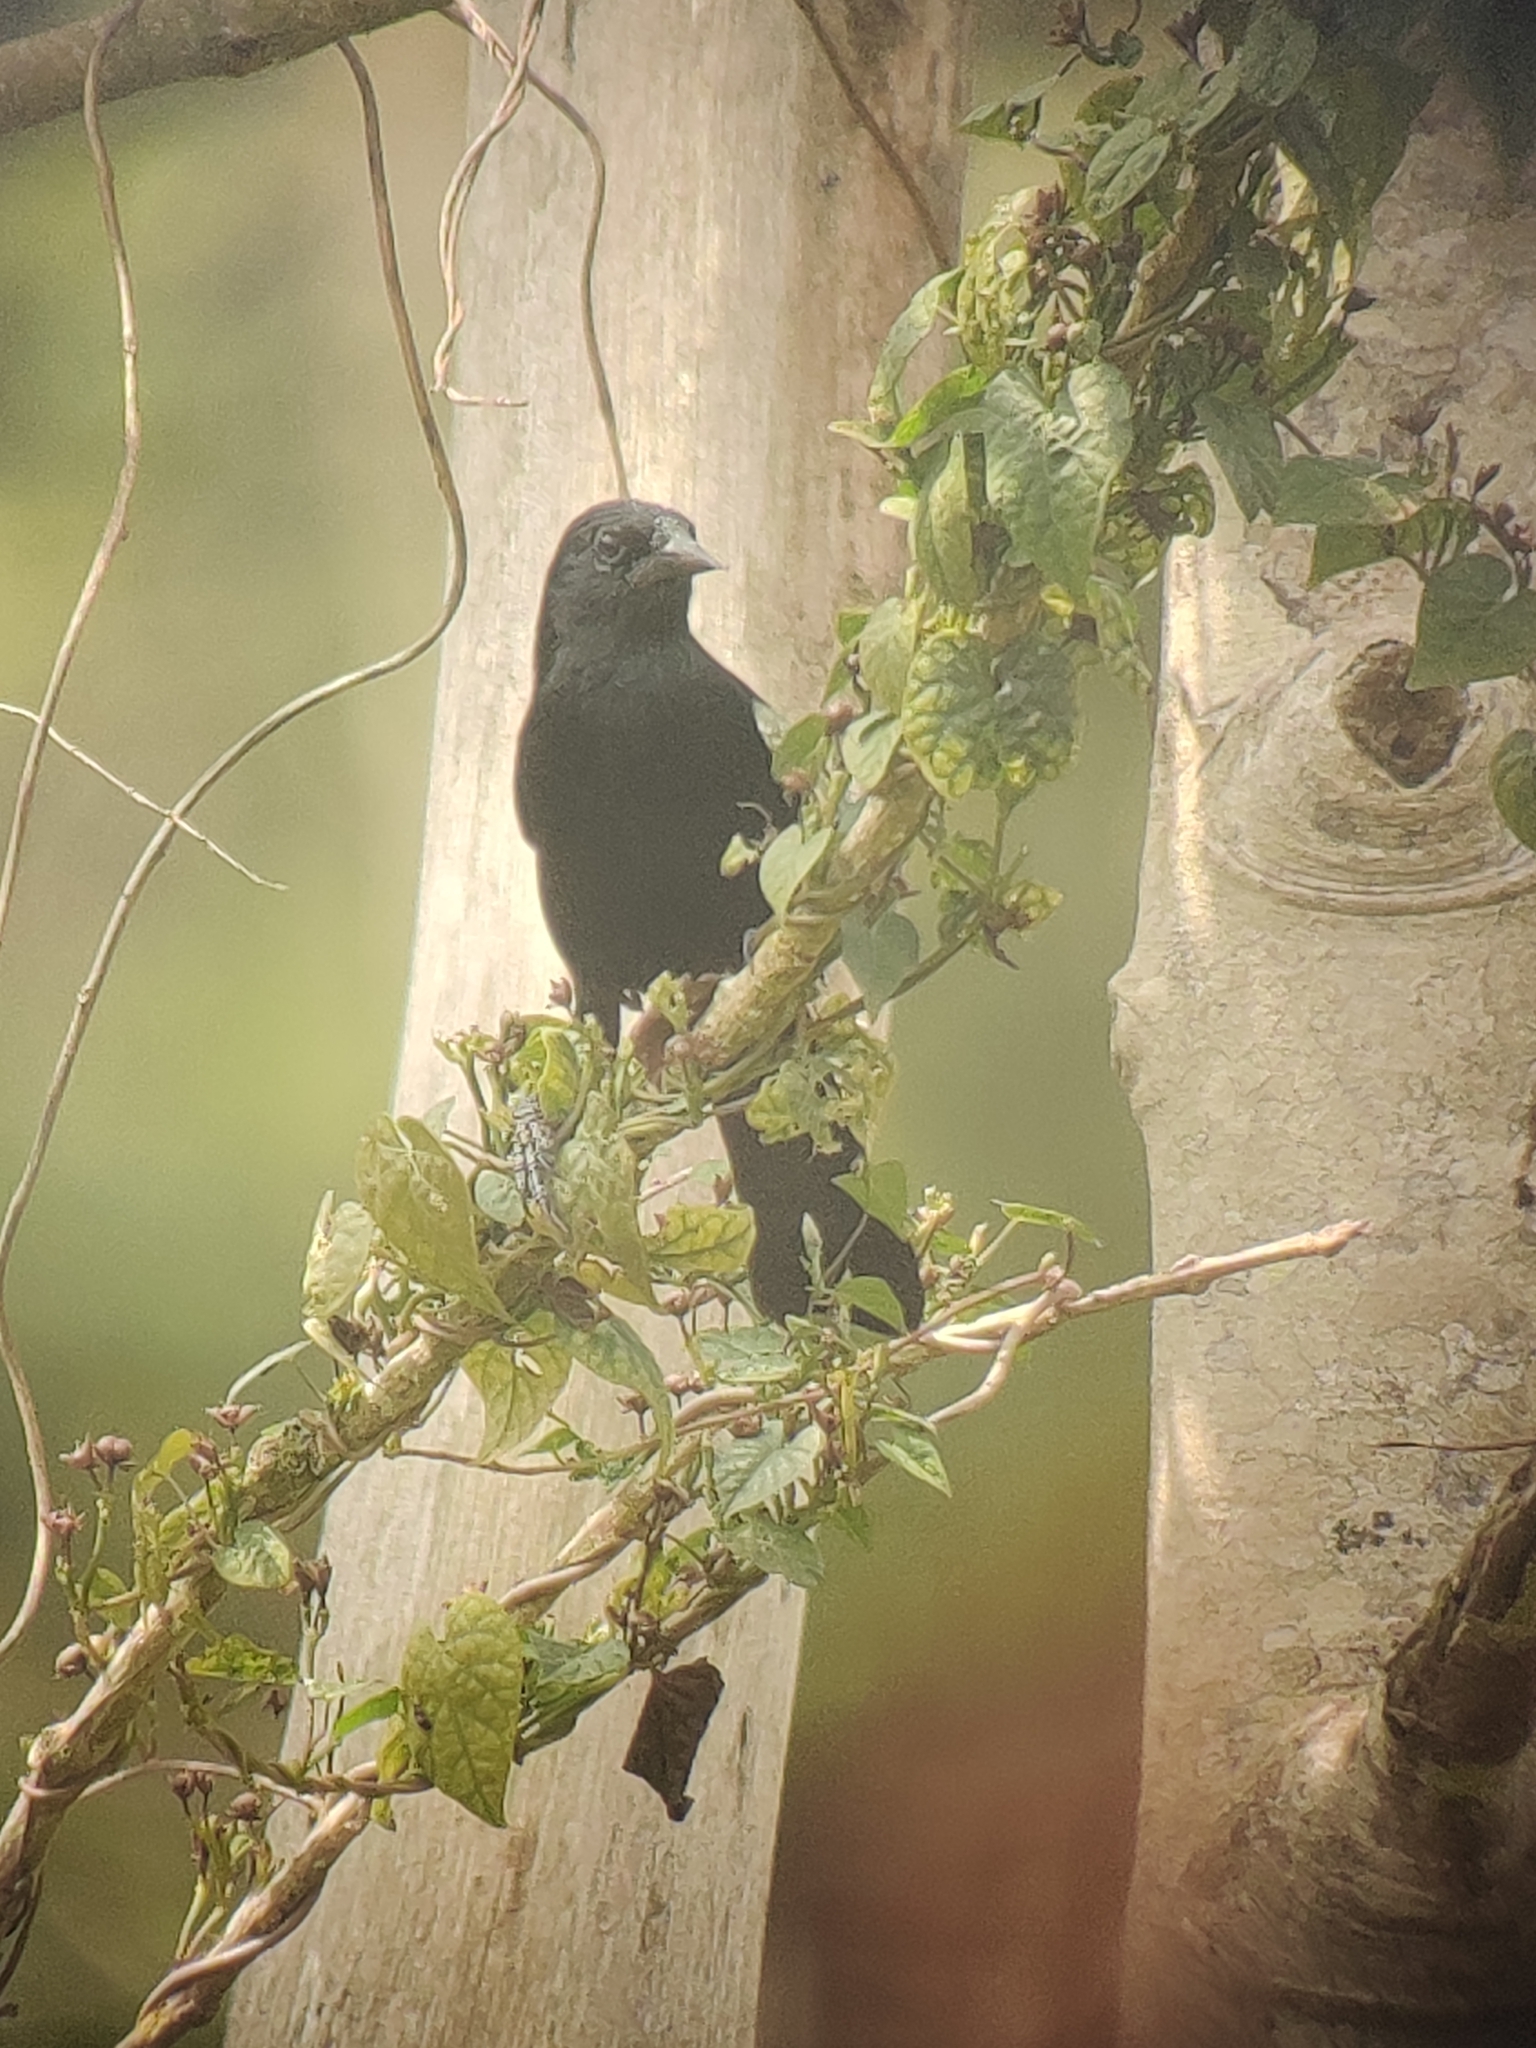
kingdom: Animalia
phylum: Chordata
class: Aves
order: Passeriformes
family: Icteridae
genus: Curaeus
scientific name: Curaeus forbesi
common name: Forbes's blackbird
